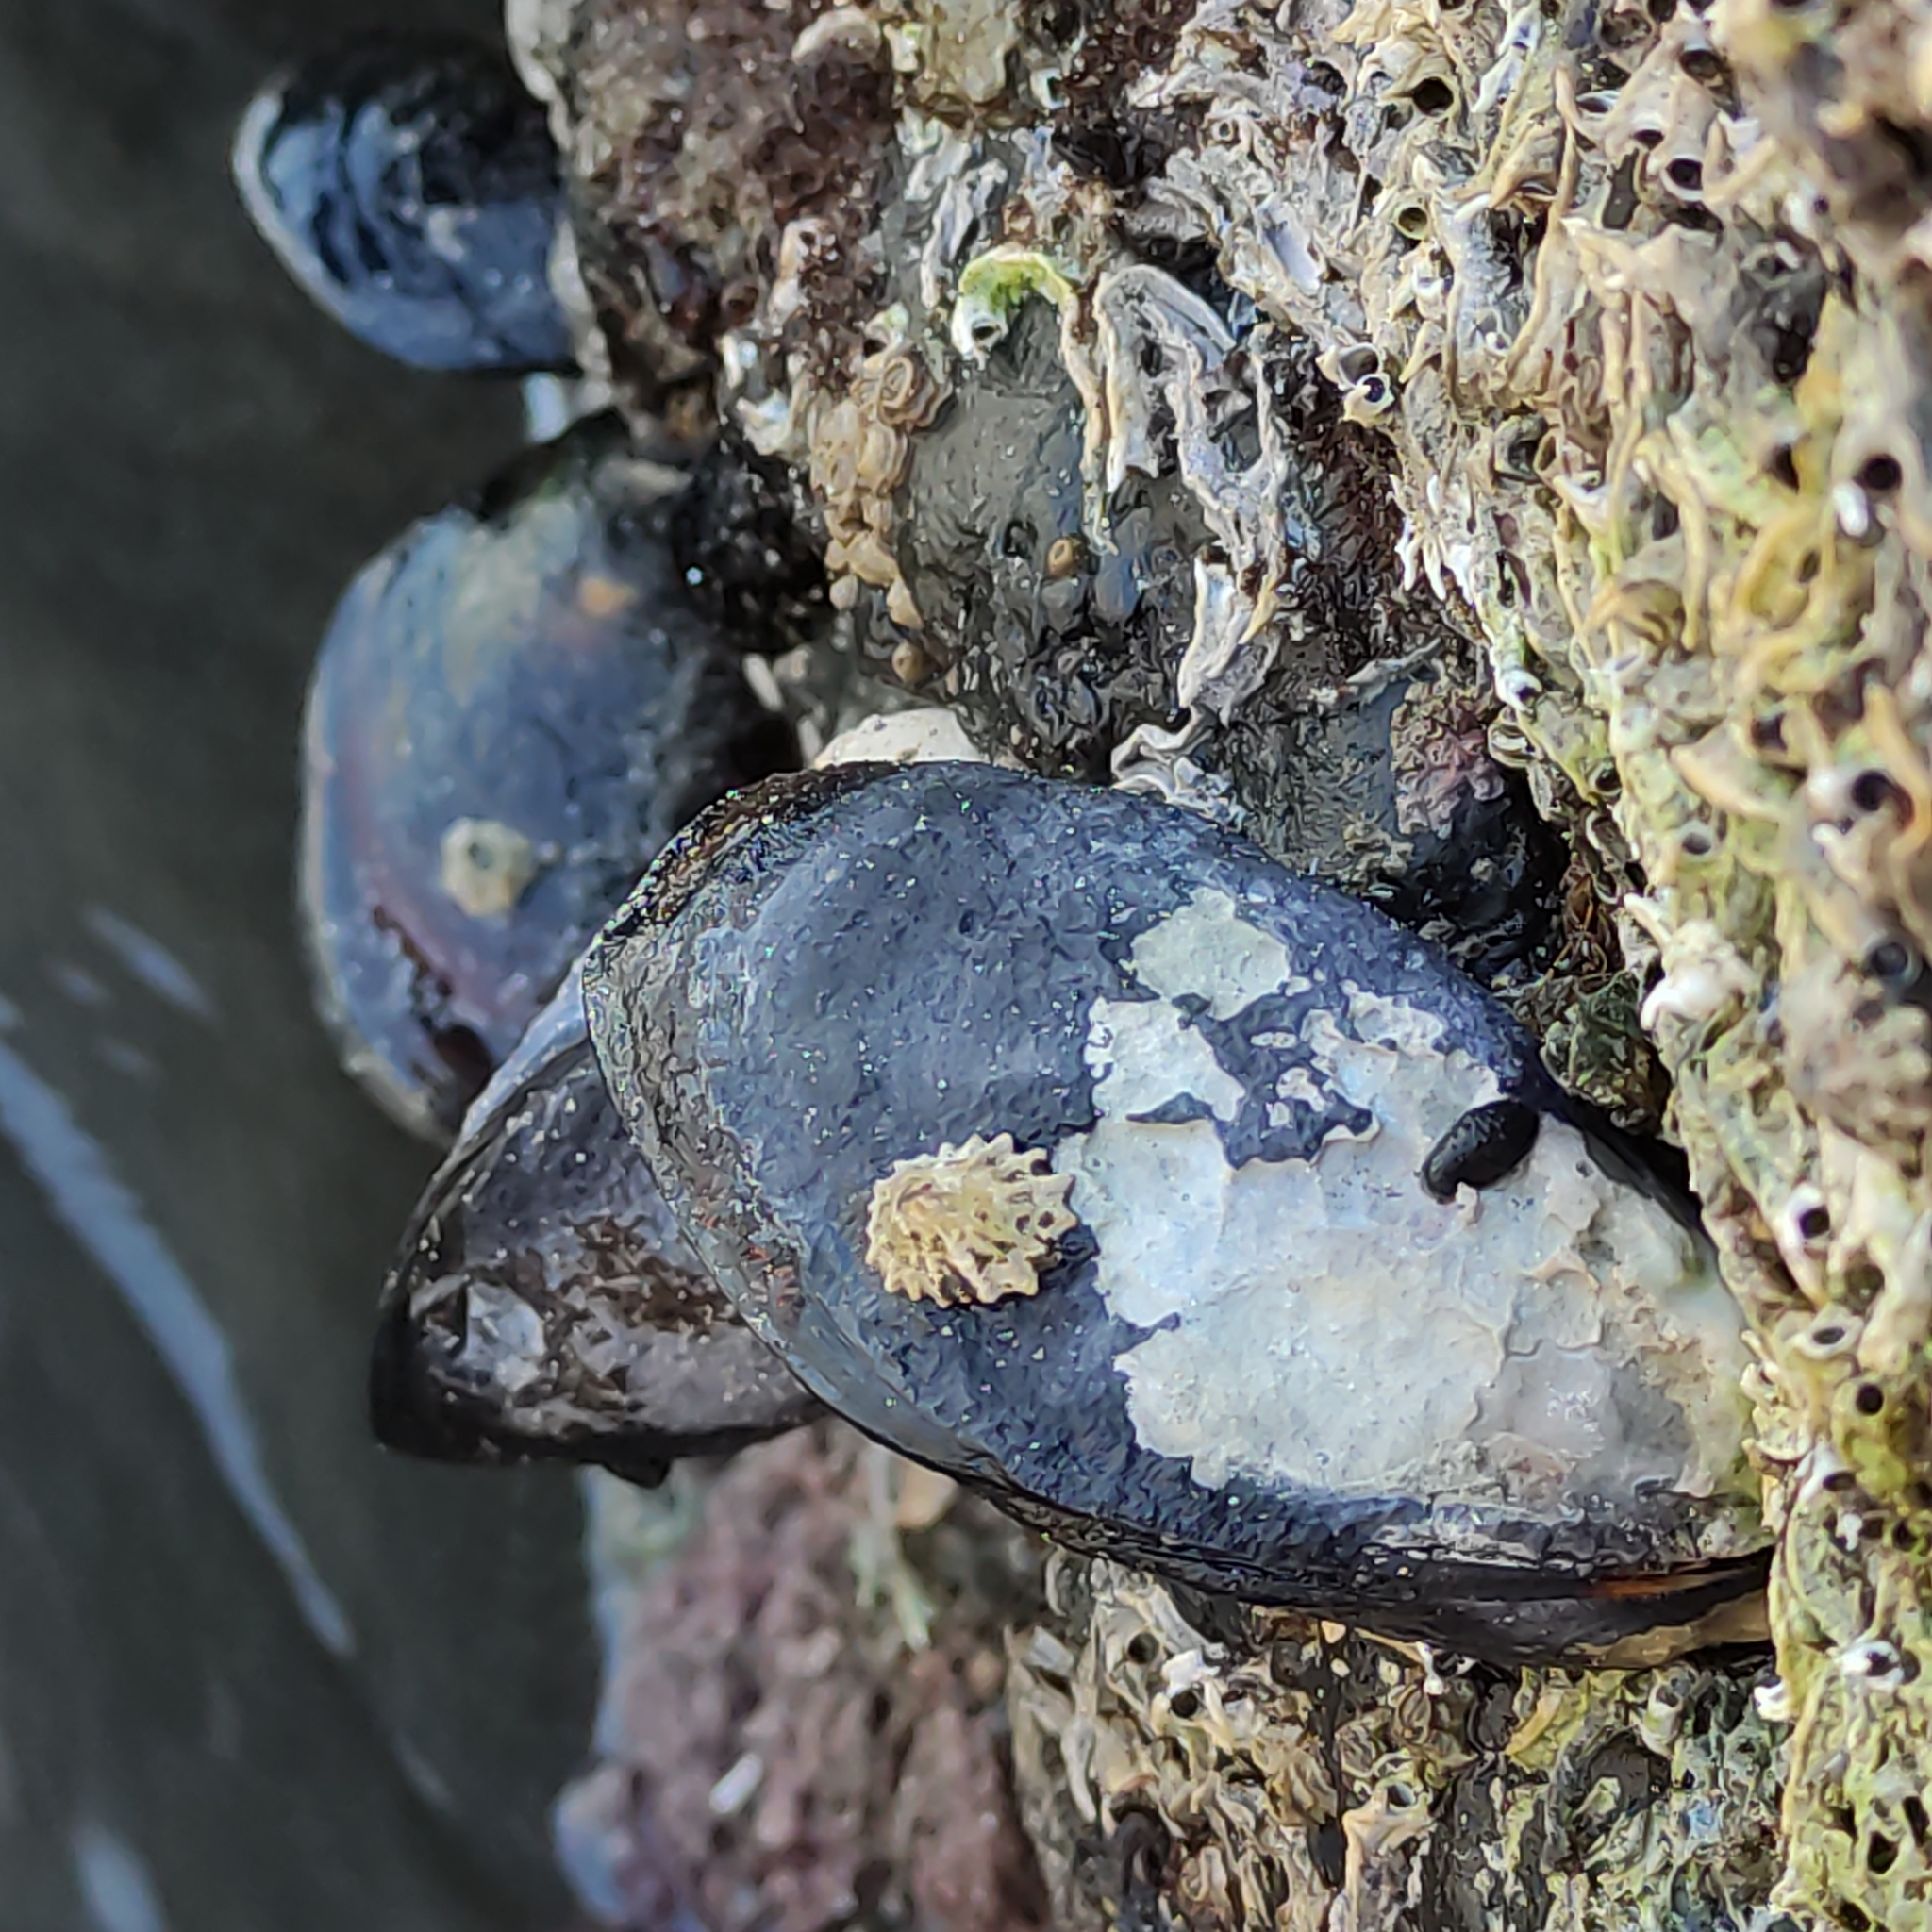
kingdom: Animalia
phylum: Mollusca
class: Bivalvia
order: Mytilida
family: Mytilidae
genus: Mytilus
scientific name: Mytilus planulatus
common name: Australian mussel
